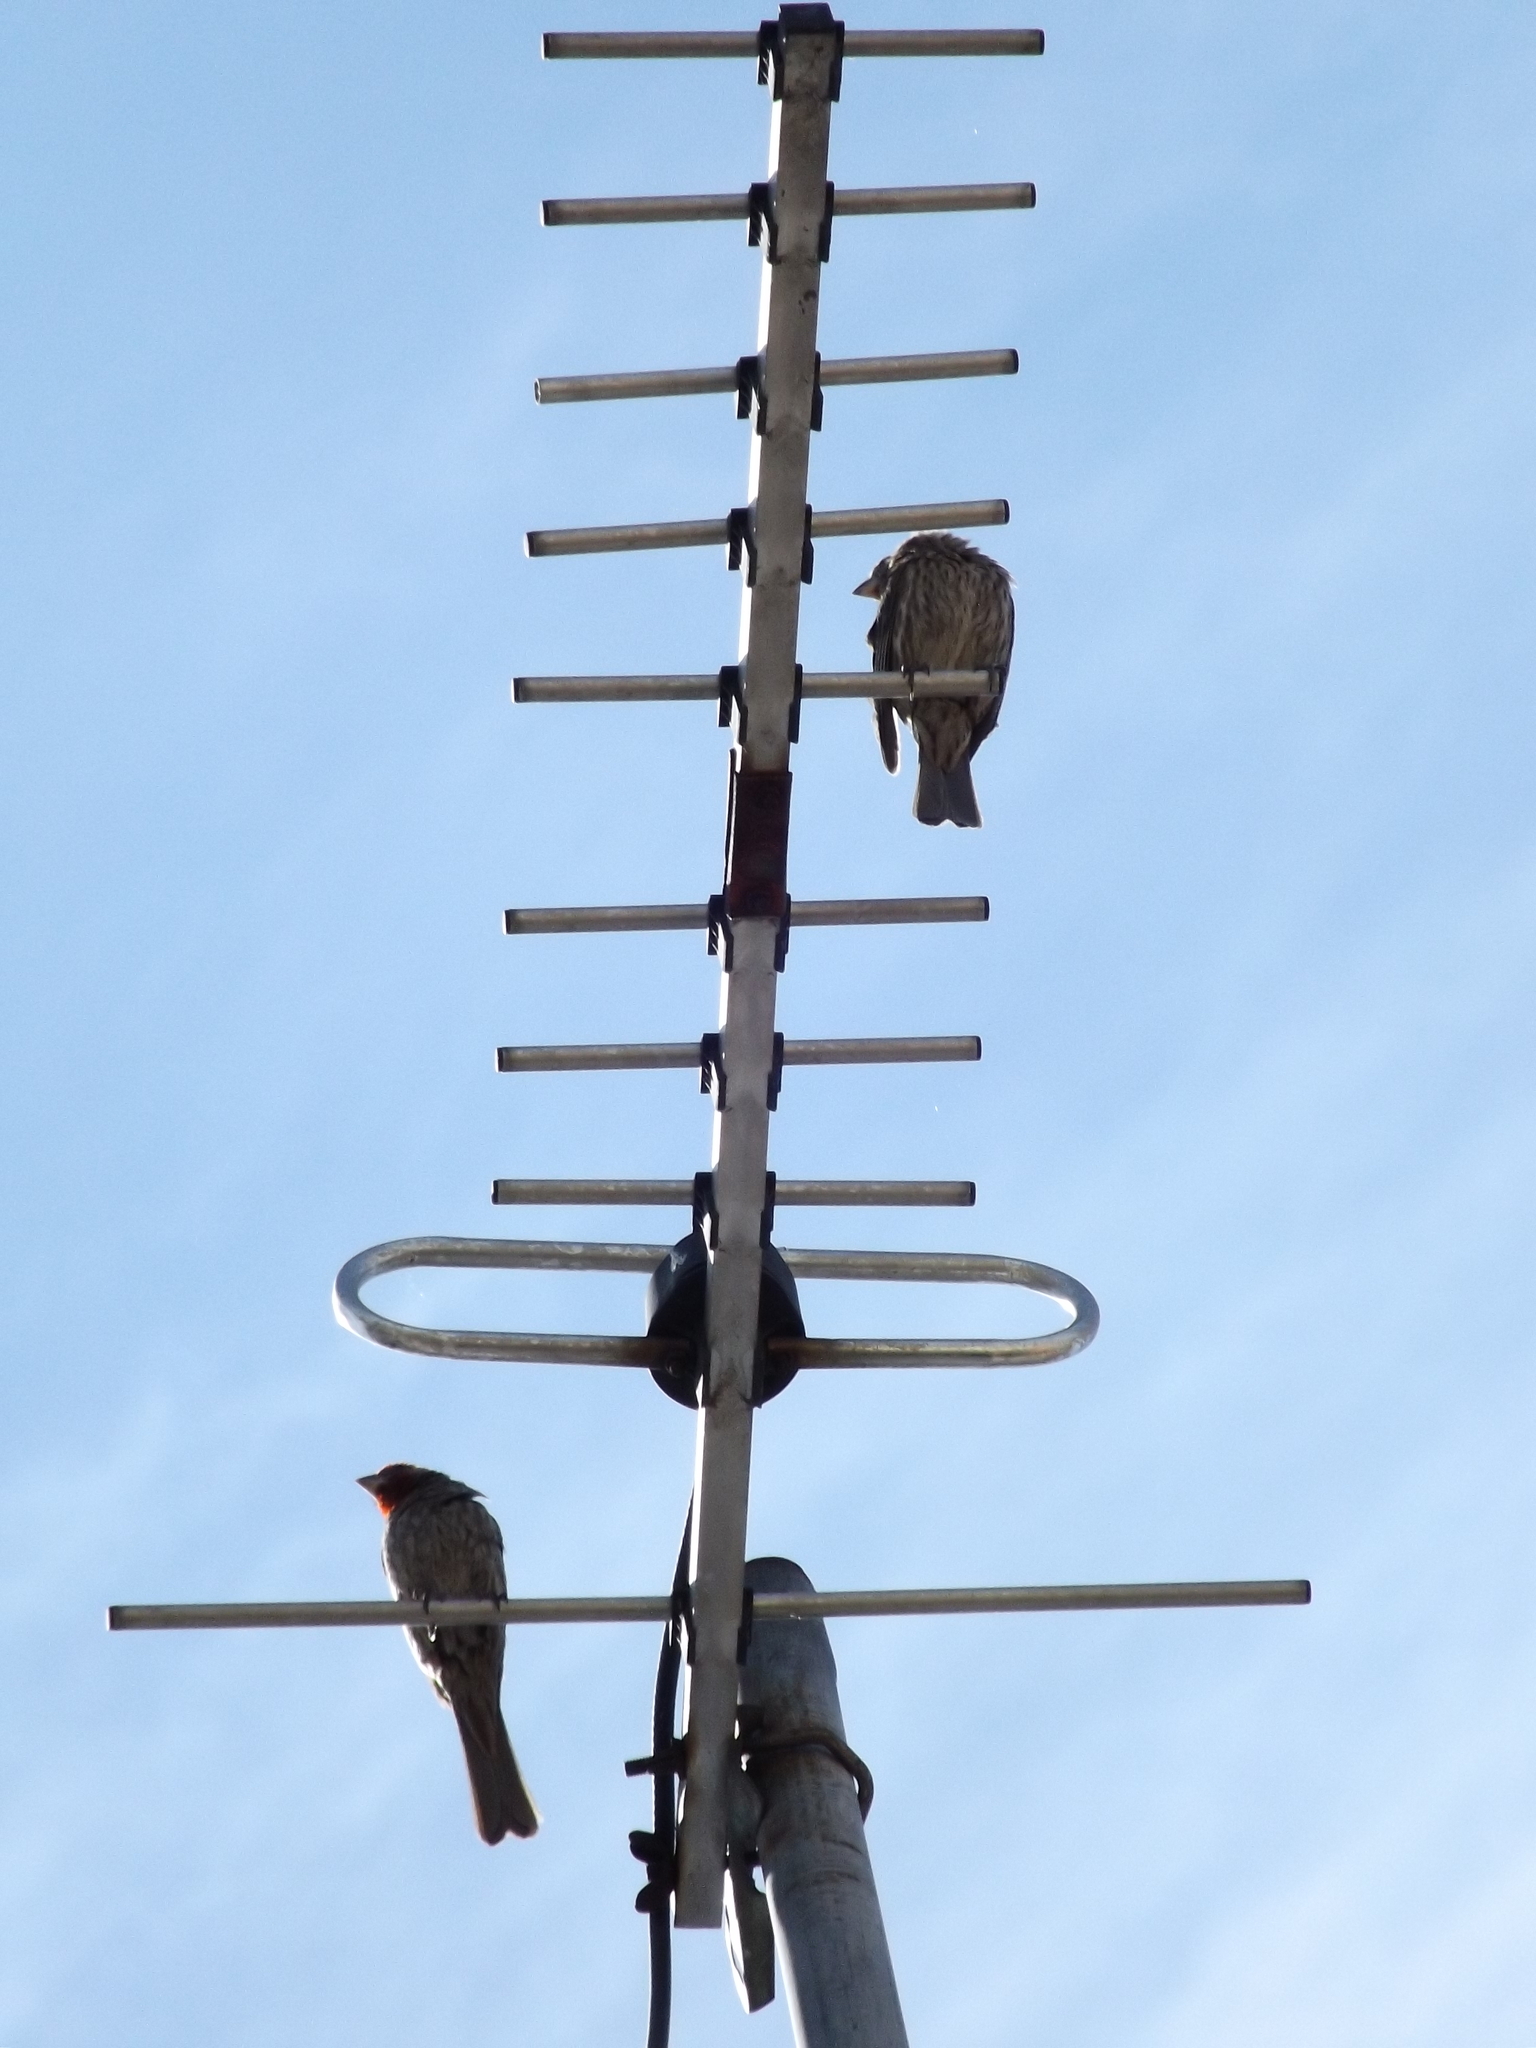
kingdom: Animalia
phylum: Chordata
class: Aves
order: Passeriformes
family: Fringillidae
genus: Haemorhous
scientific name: Haemorhous mexicanus
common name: House finch
